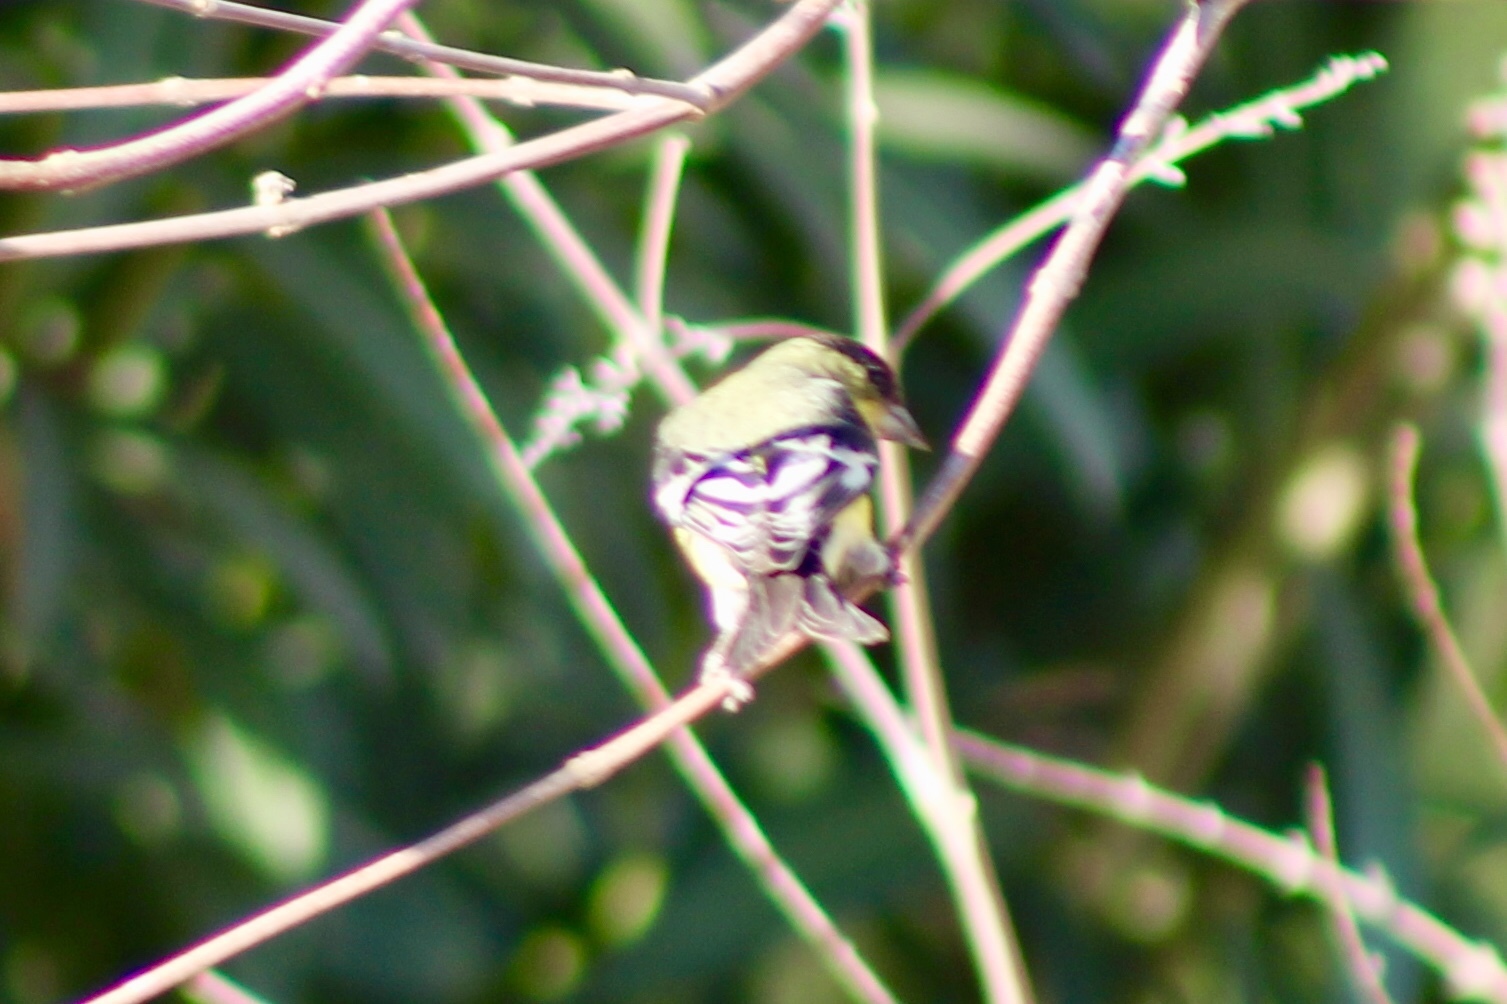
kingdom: Animalia
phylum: Chordata
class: Aves
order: Passeriformes
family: Fringillidae
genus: Spinus
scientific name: Spinus psaltria
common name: Lesser goldfinch
